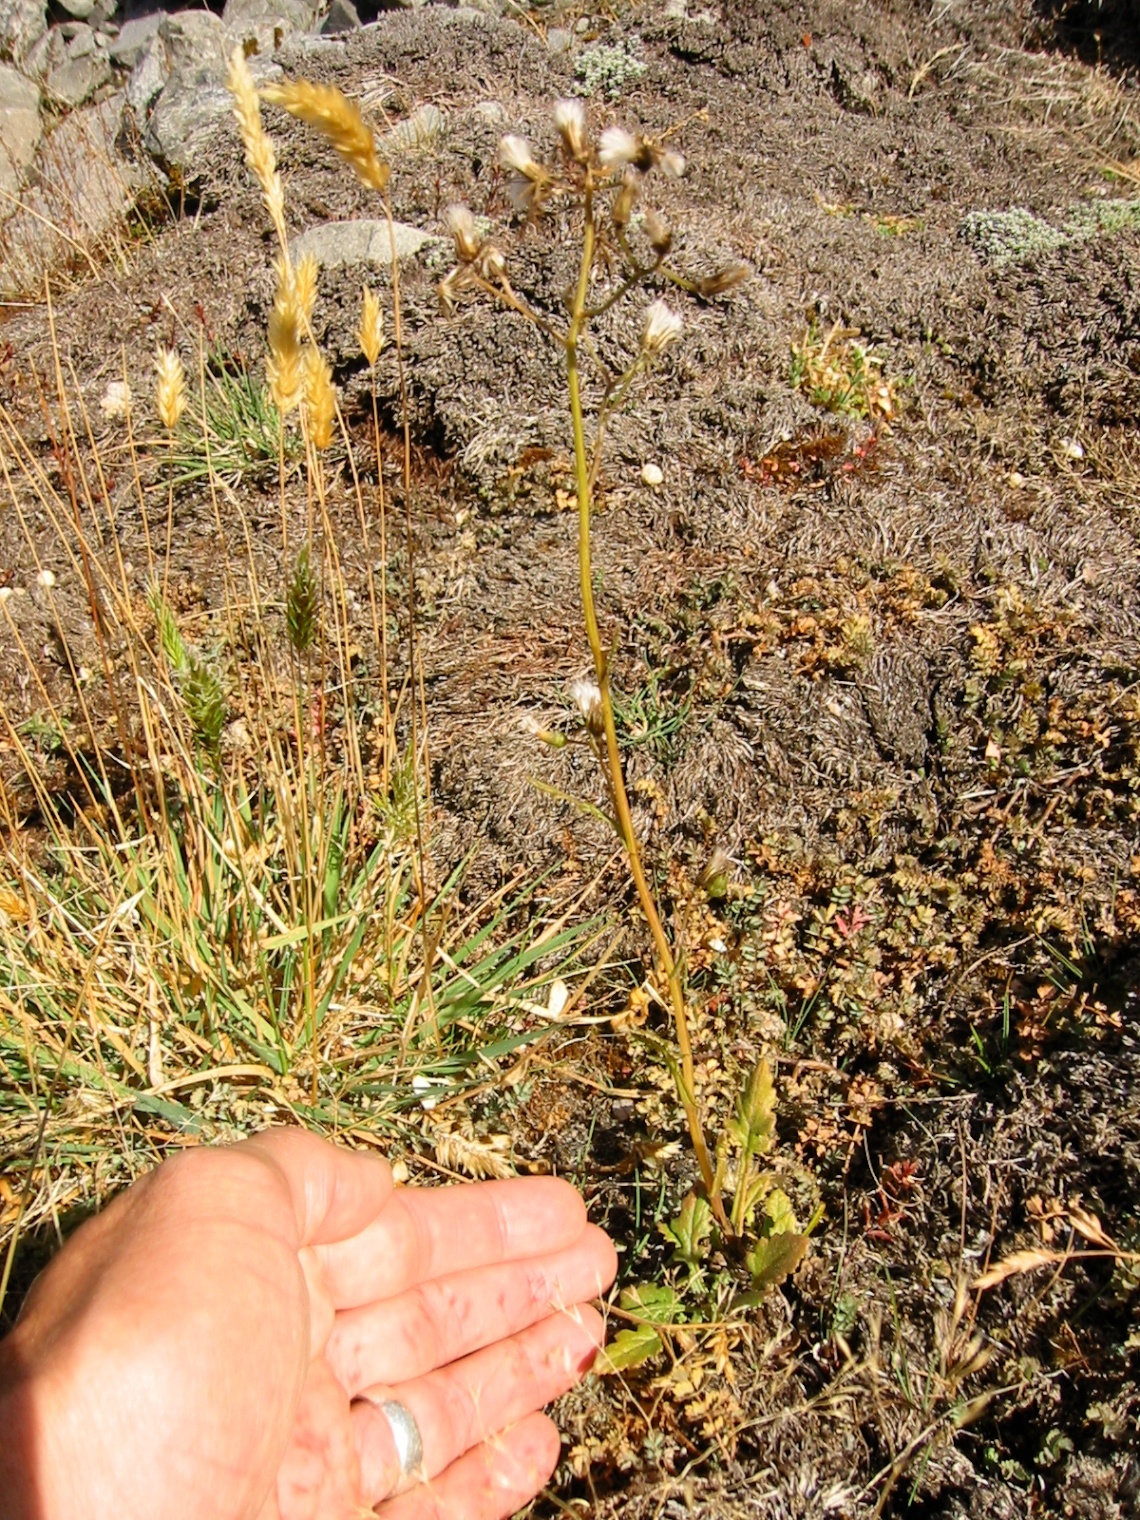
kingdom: Plantae
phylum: Tracheophyta
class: Magnoliopsida
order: Asterales
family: Asteraceae
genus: Senecio
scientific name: Senecio wairauensis
